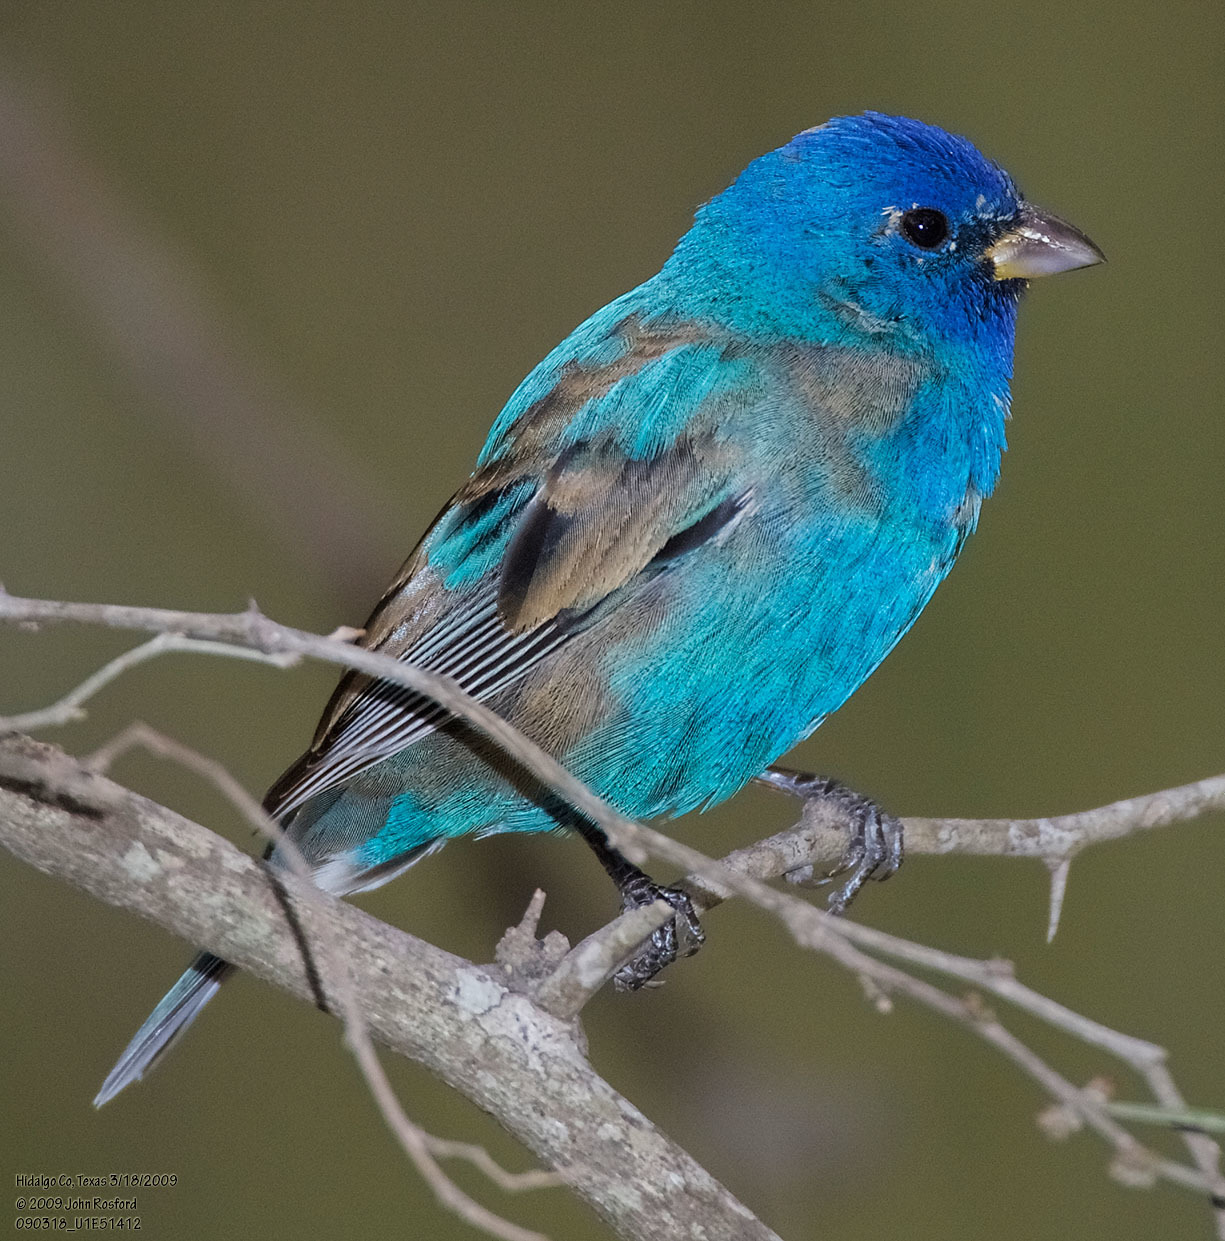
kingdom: Animalia
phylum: Chordata
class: Aves
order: Passeriformes
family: Cardinalidae
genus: Passerina
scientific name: Passerina cyanea
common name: Indigo bunting
